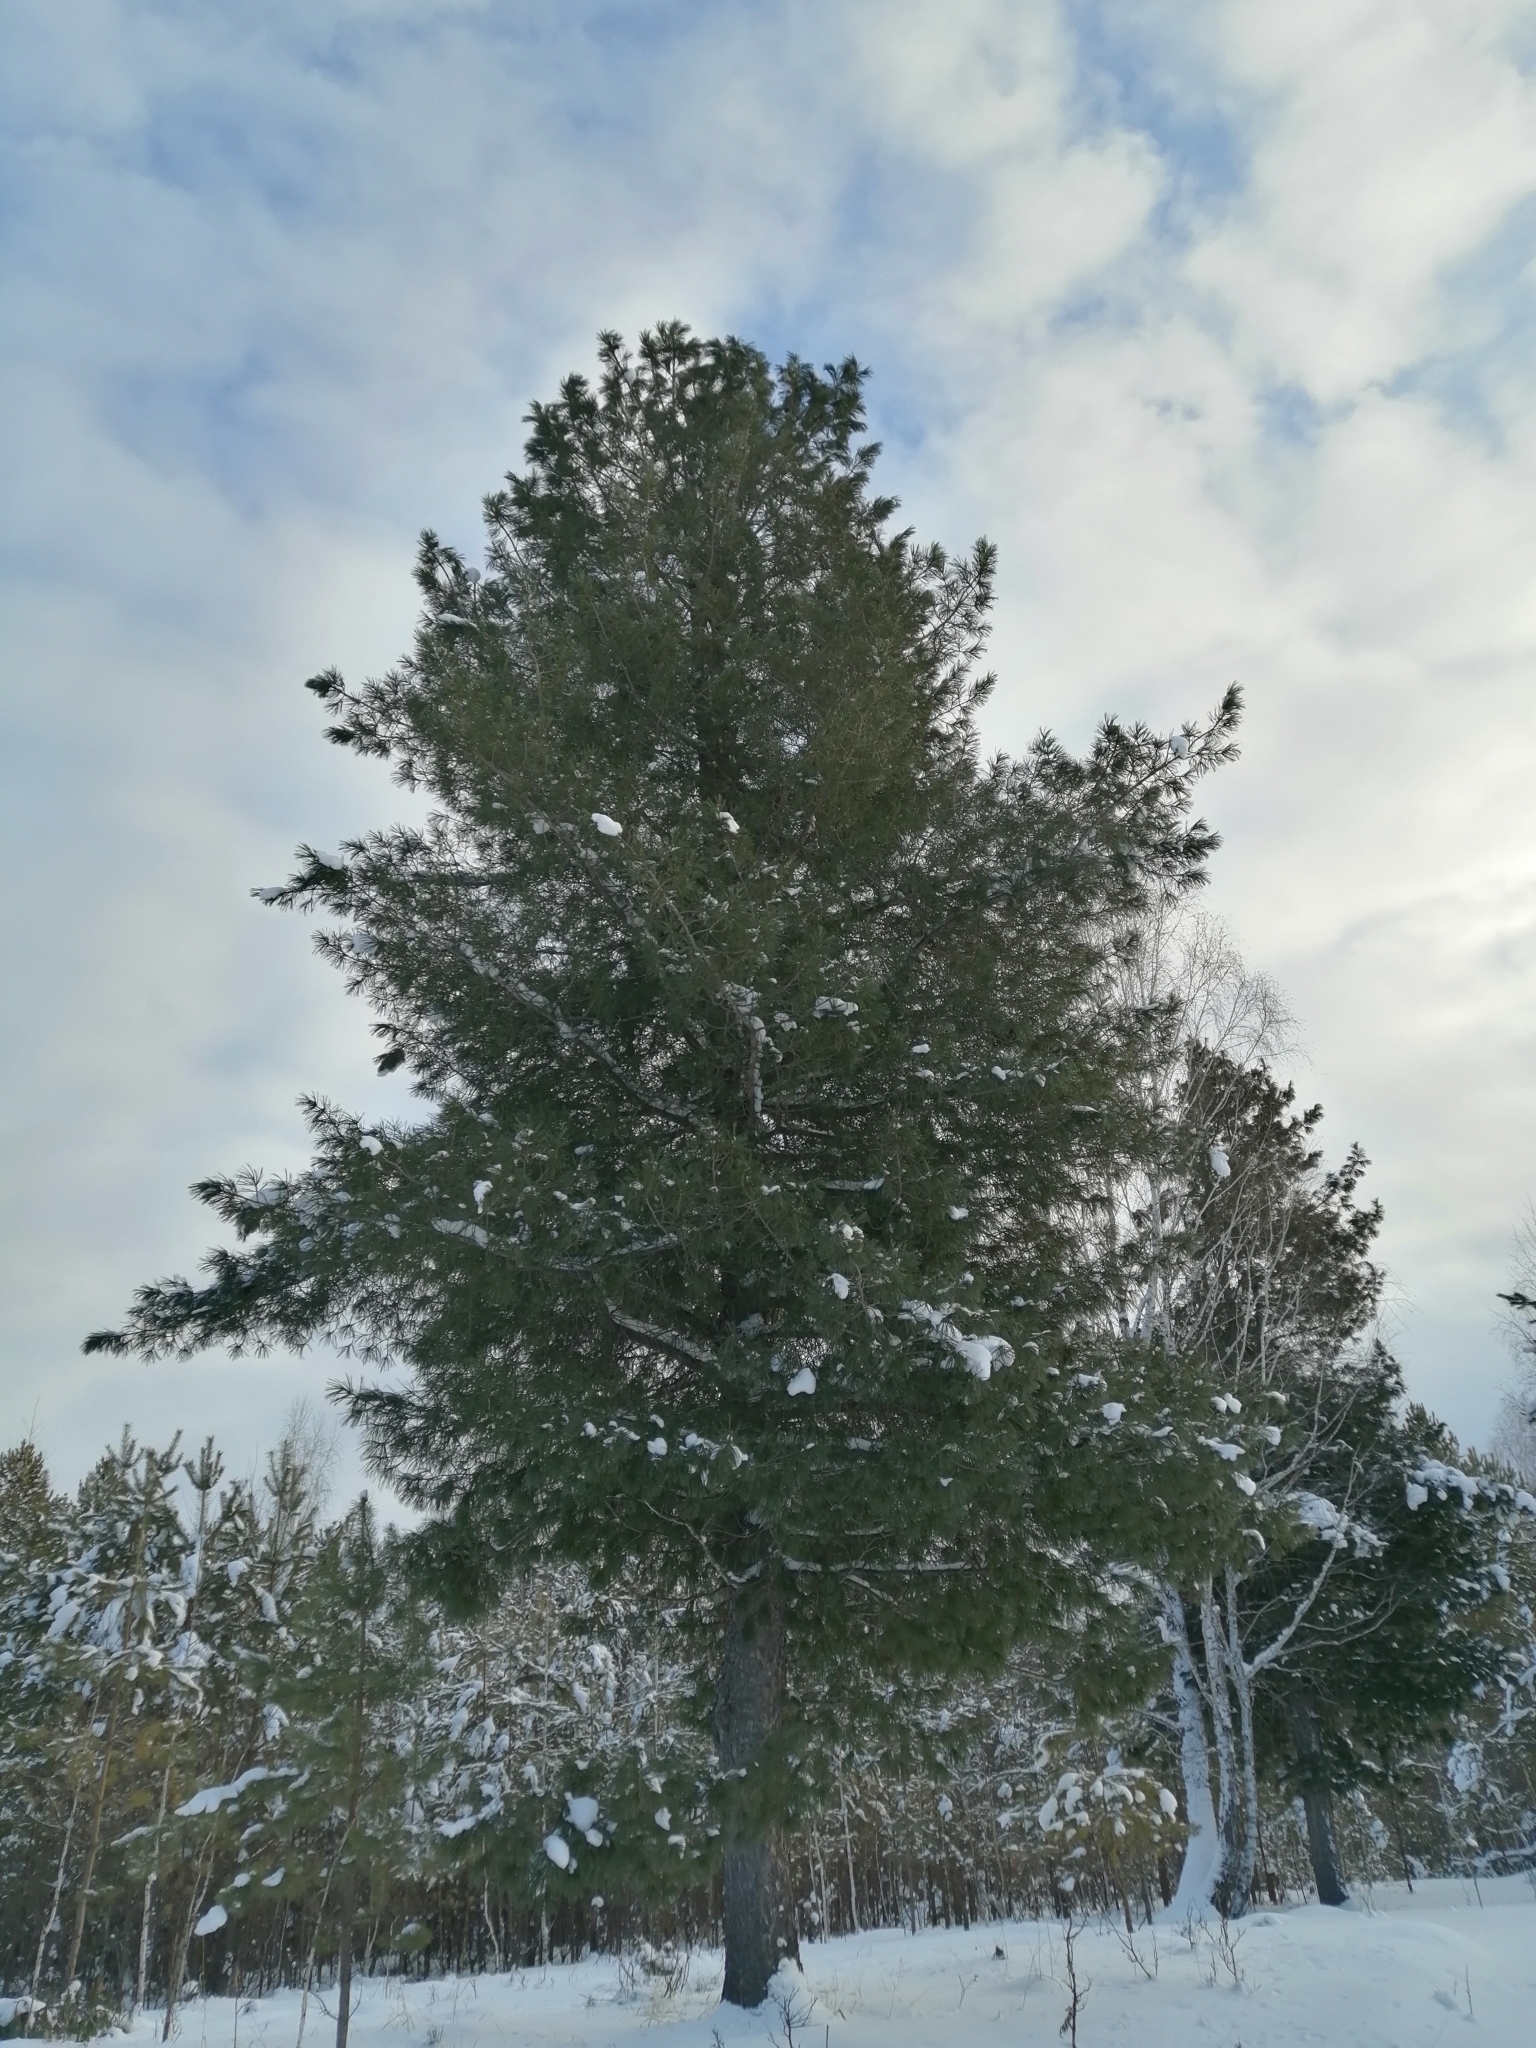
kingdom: Plantae
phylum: Tracheophyta
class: Pinopsida
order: Pinales
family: Pinaceae
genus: Pinus
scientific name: Pinus sibirica
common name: Siberian pine
